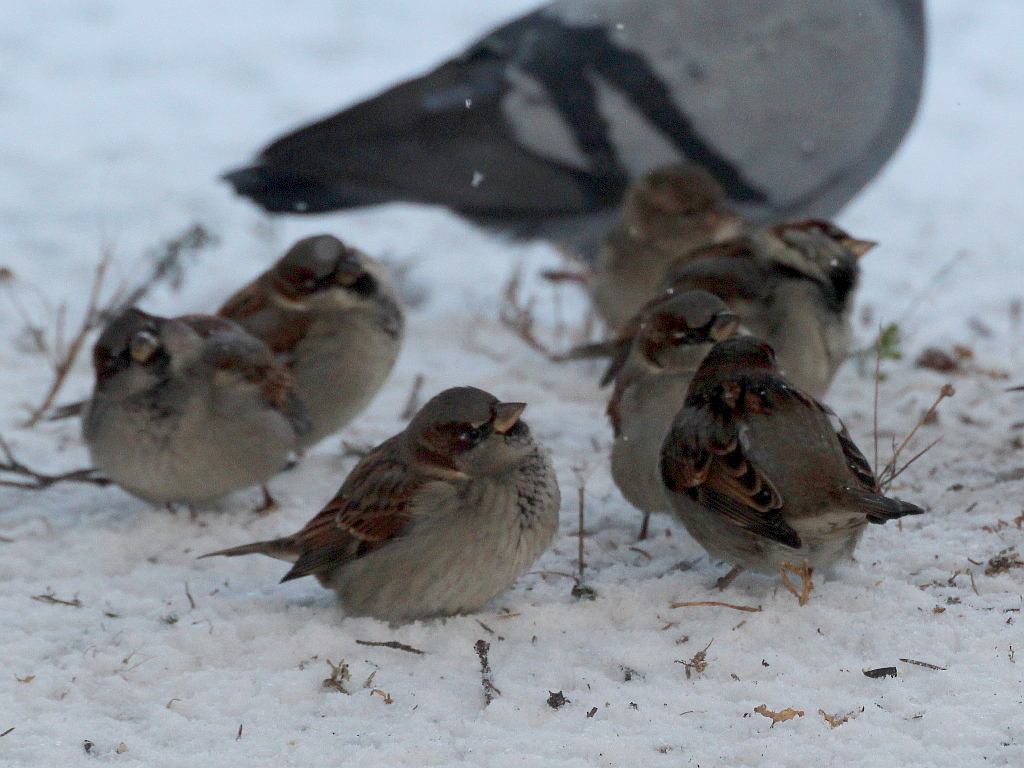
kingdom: Animalia
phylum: Chordata
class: Aves
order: Passeriformes
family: Passeridae
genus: Passer
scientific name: Passer domesticus
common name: House sparrow
